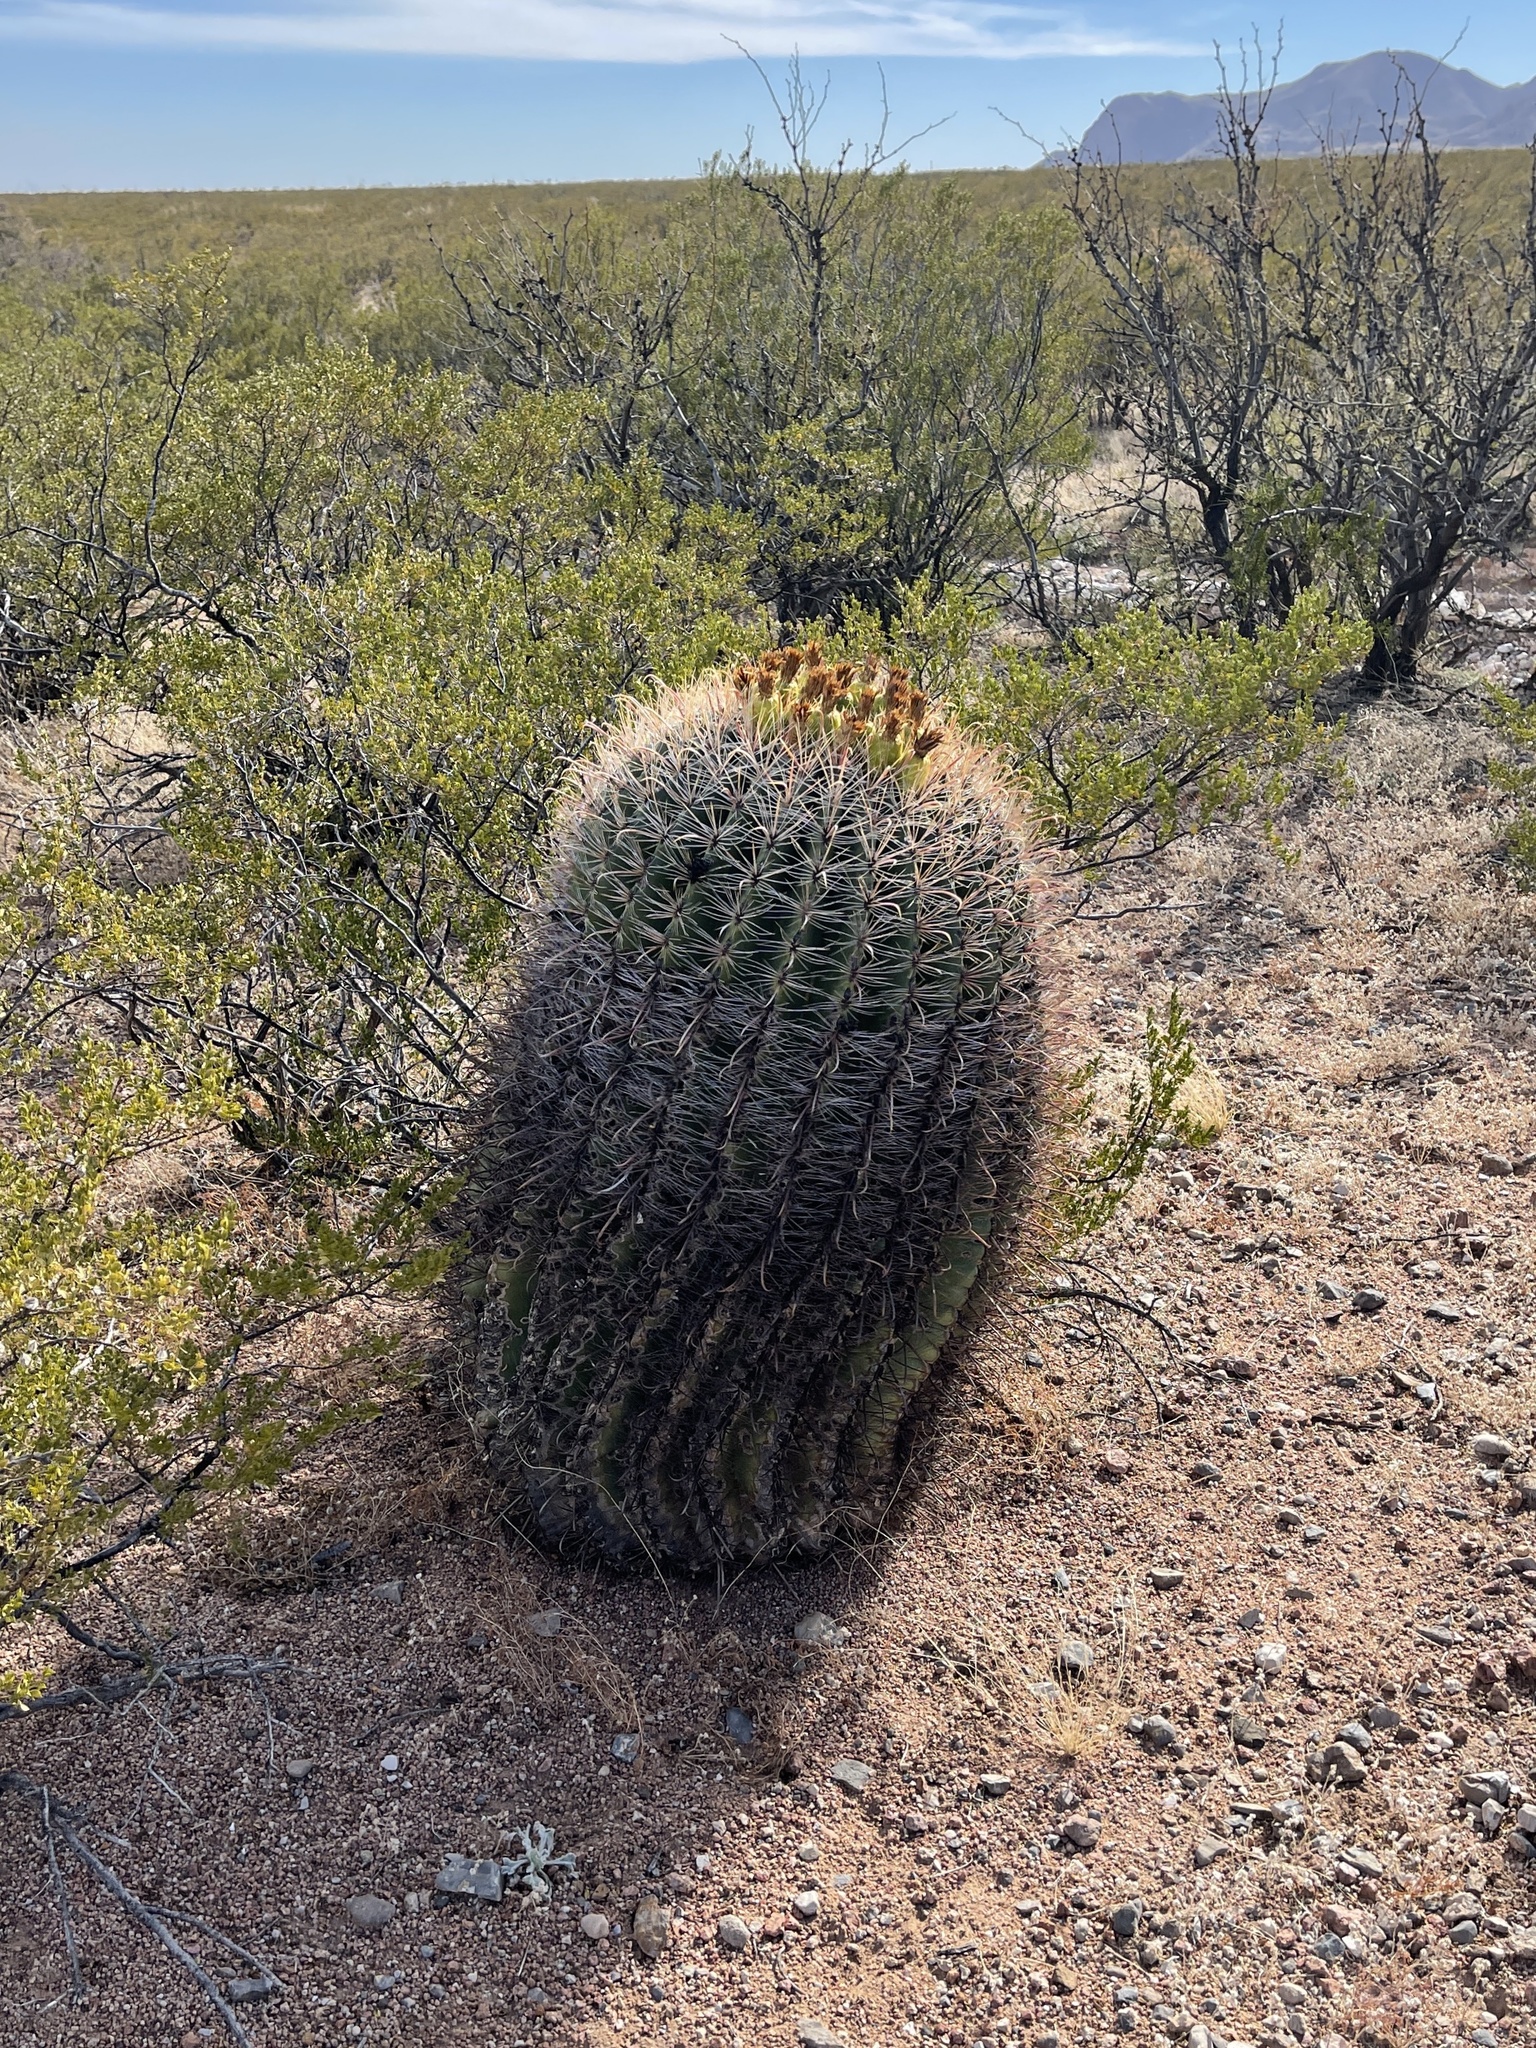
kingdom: Plantae
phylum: Tracheophyta
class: Magnoliopsida
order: Caryophyllales
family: Cactaceae
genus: Ferocactus
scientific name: Ferocactus wislizeni
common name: Candy barrel cactus
